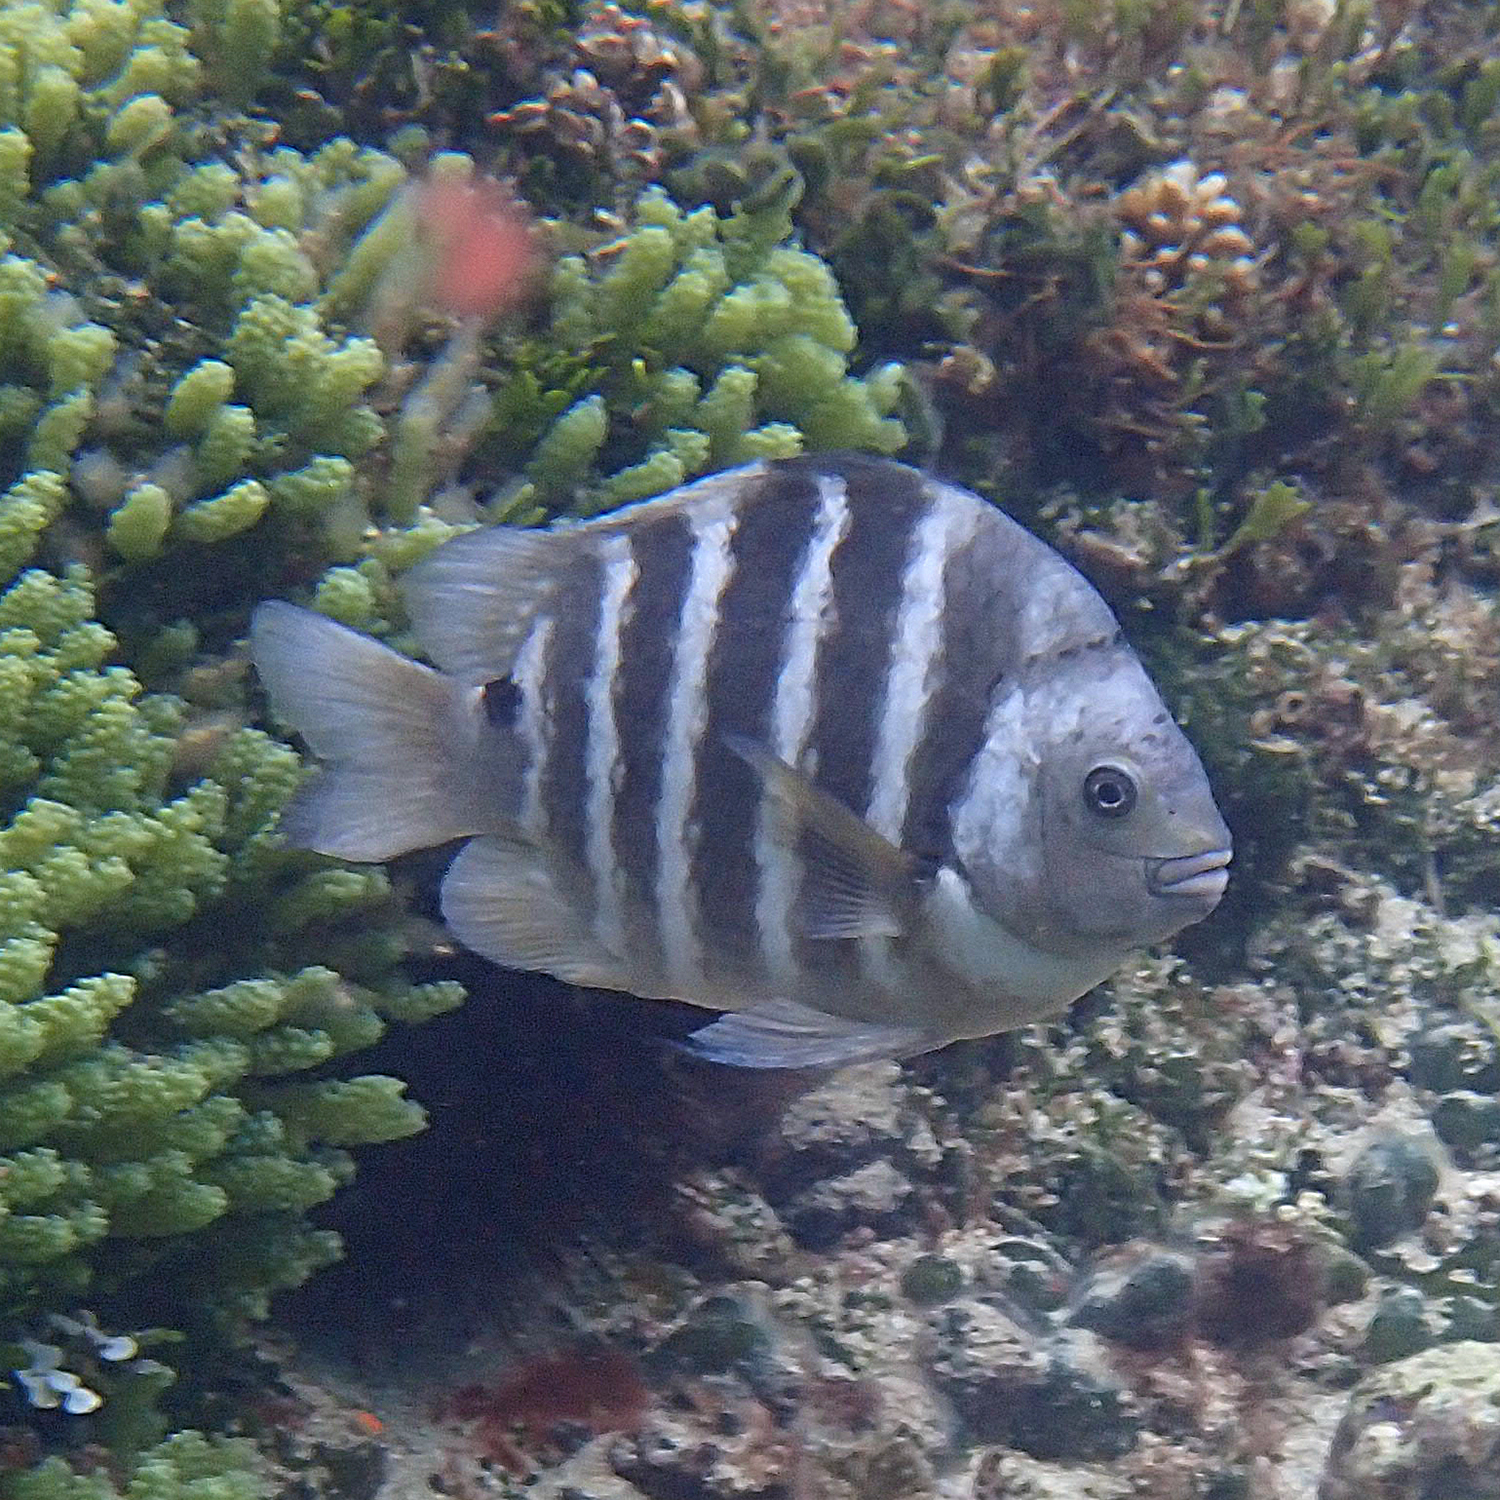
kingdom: Animalia
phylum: Chordata
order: Perciformes
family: Pomacentridae
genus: Abudefduf
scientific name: Abudefduf sordidus
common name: Blackspot sergeant
